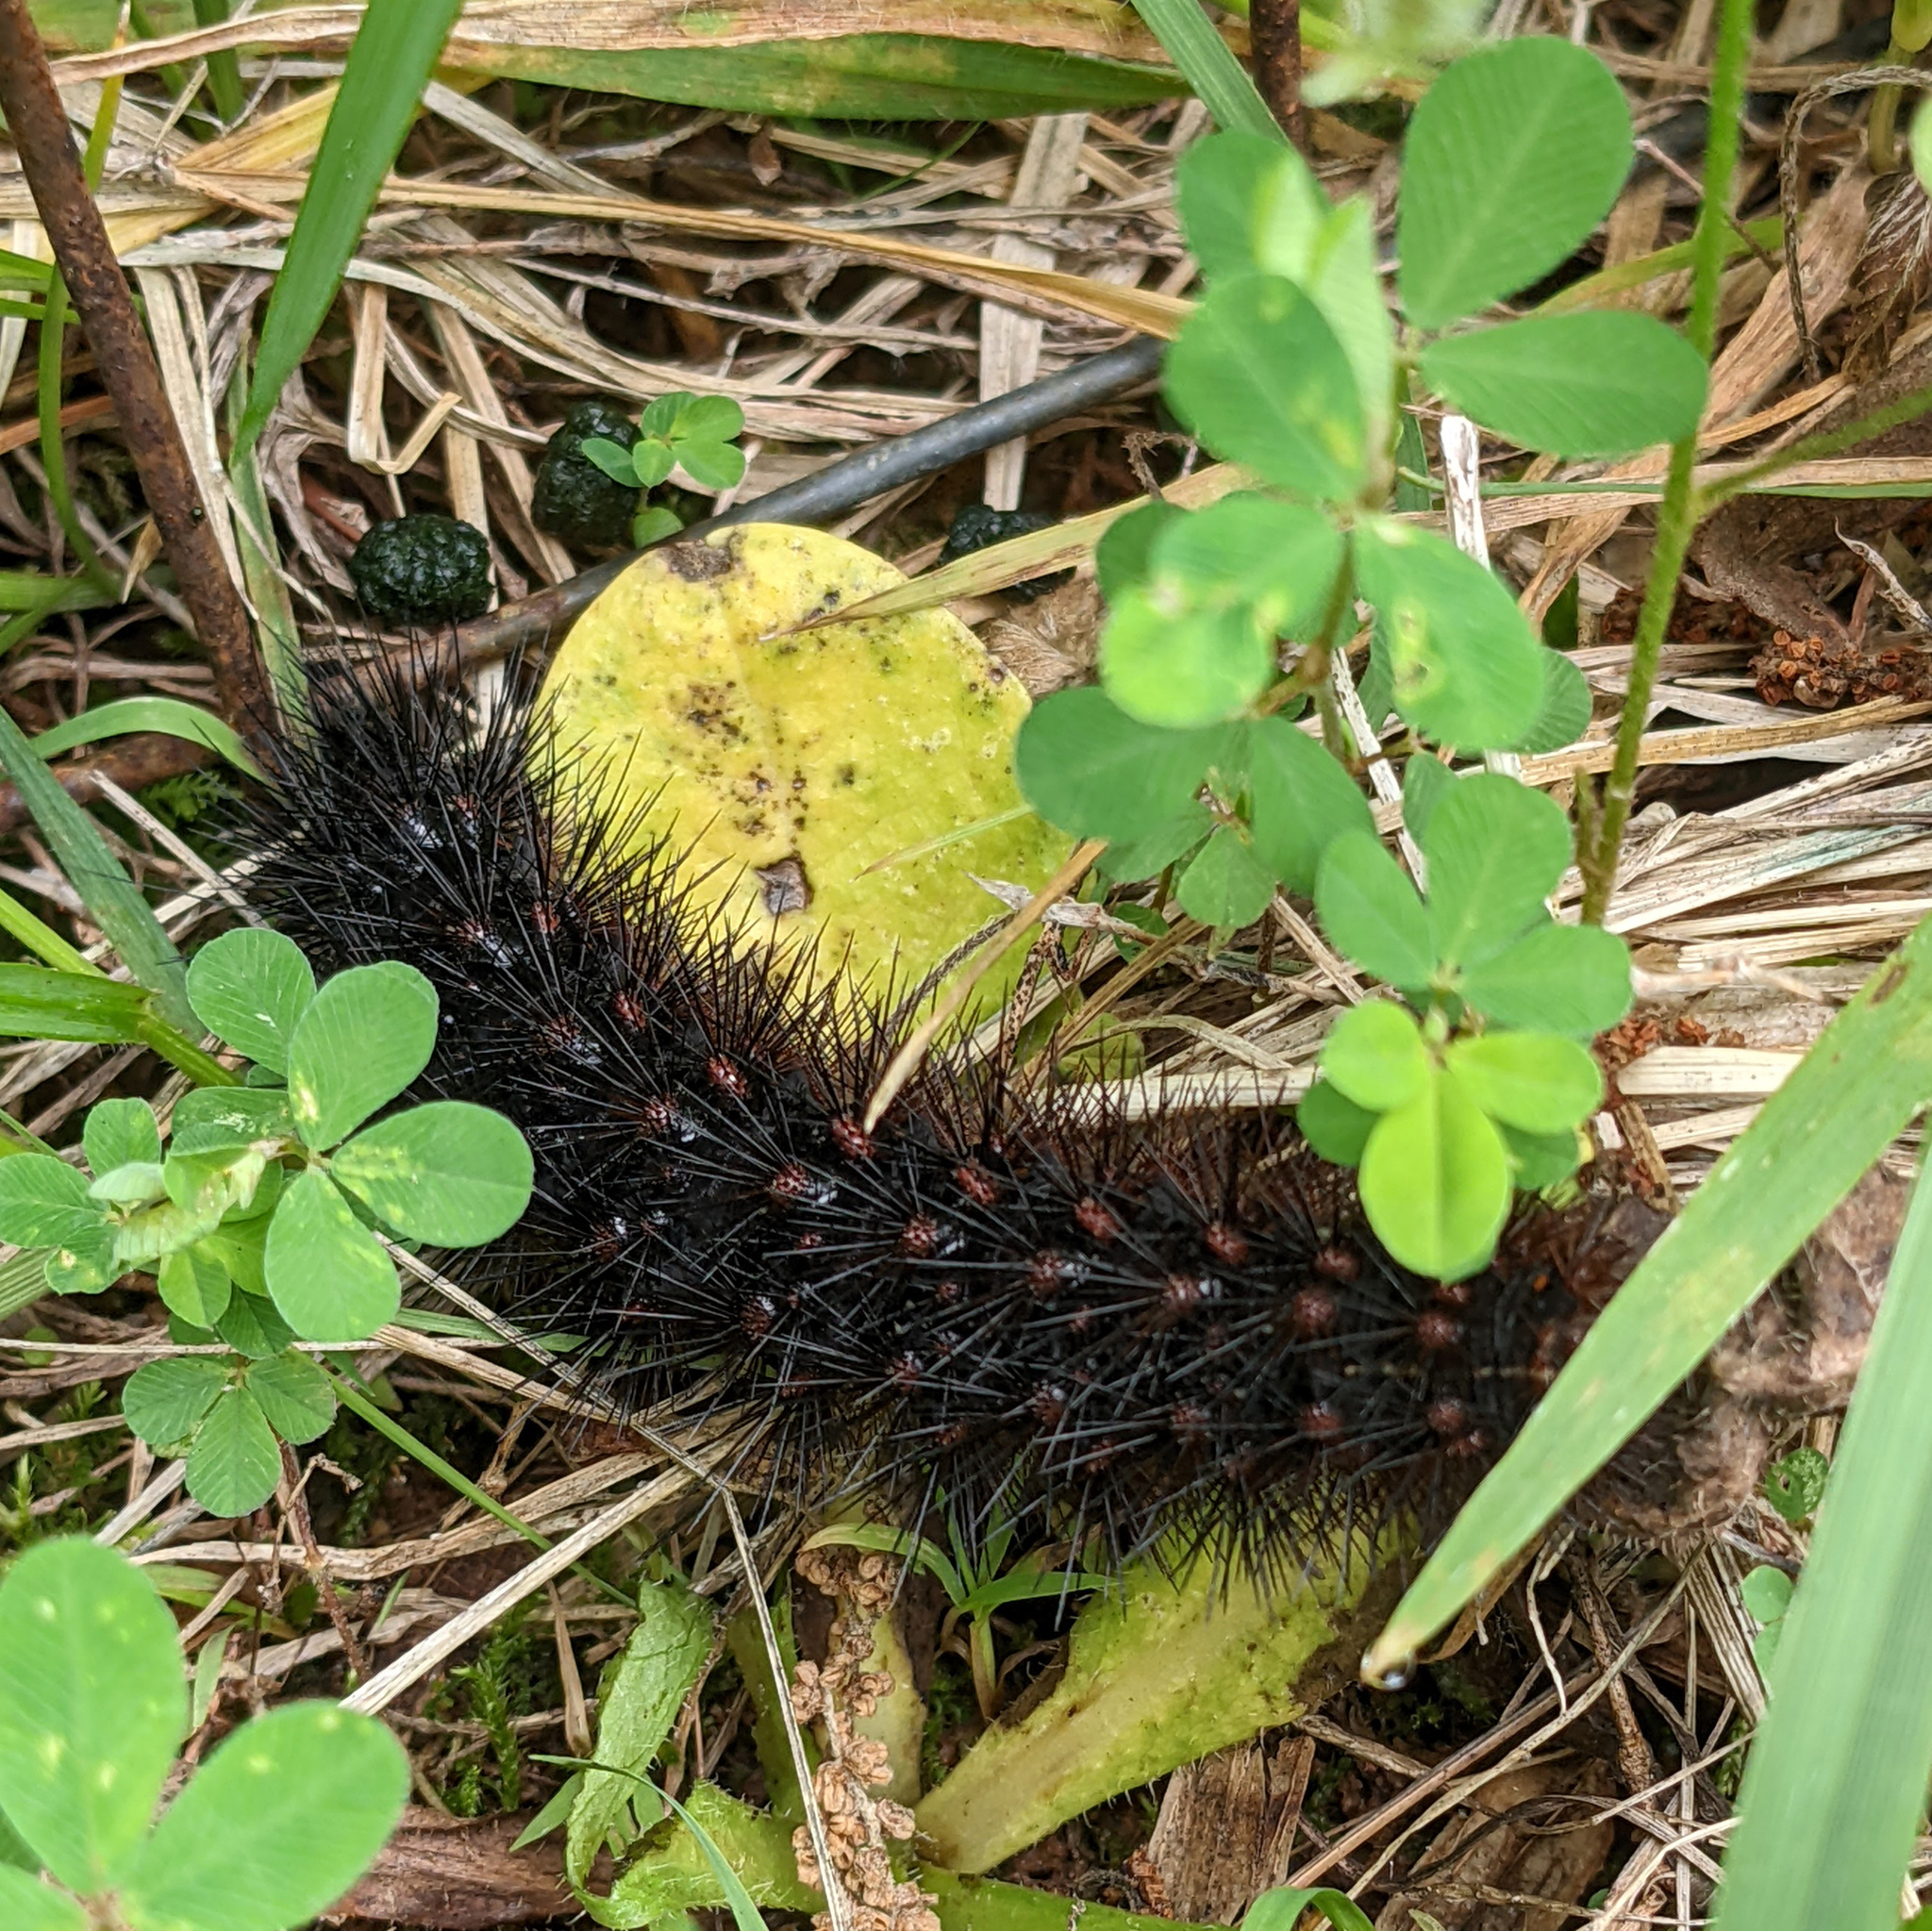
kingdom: Animalia
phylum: Arthropoda
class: Insecta
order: Lepidoptera
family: Erebidae
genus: Hypercompe
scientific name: Hypercompe scribonia
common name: Giant leopard moth
